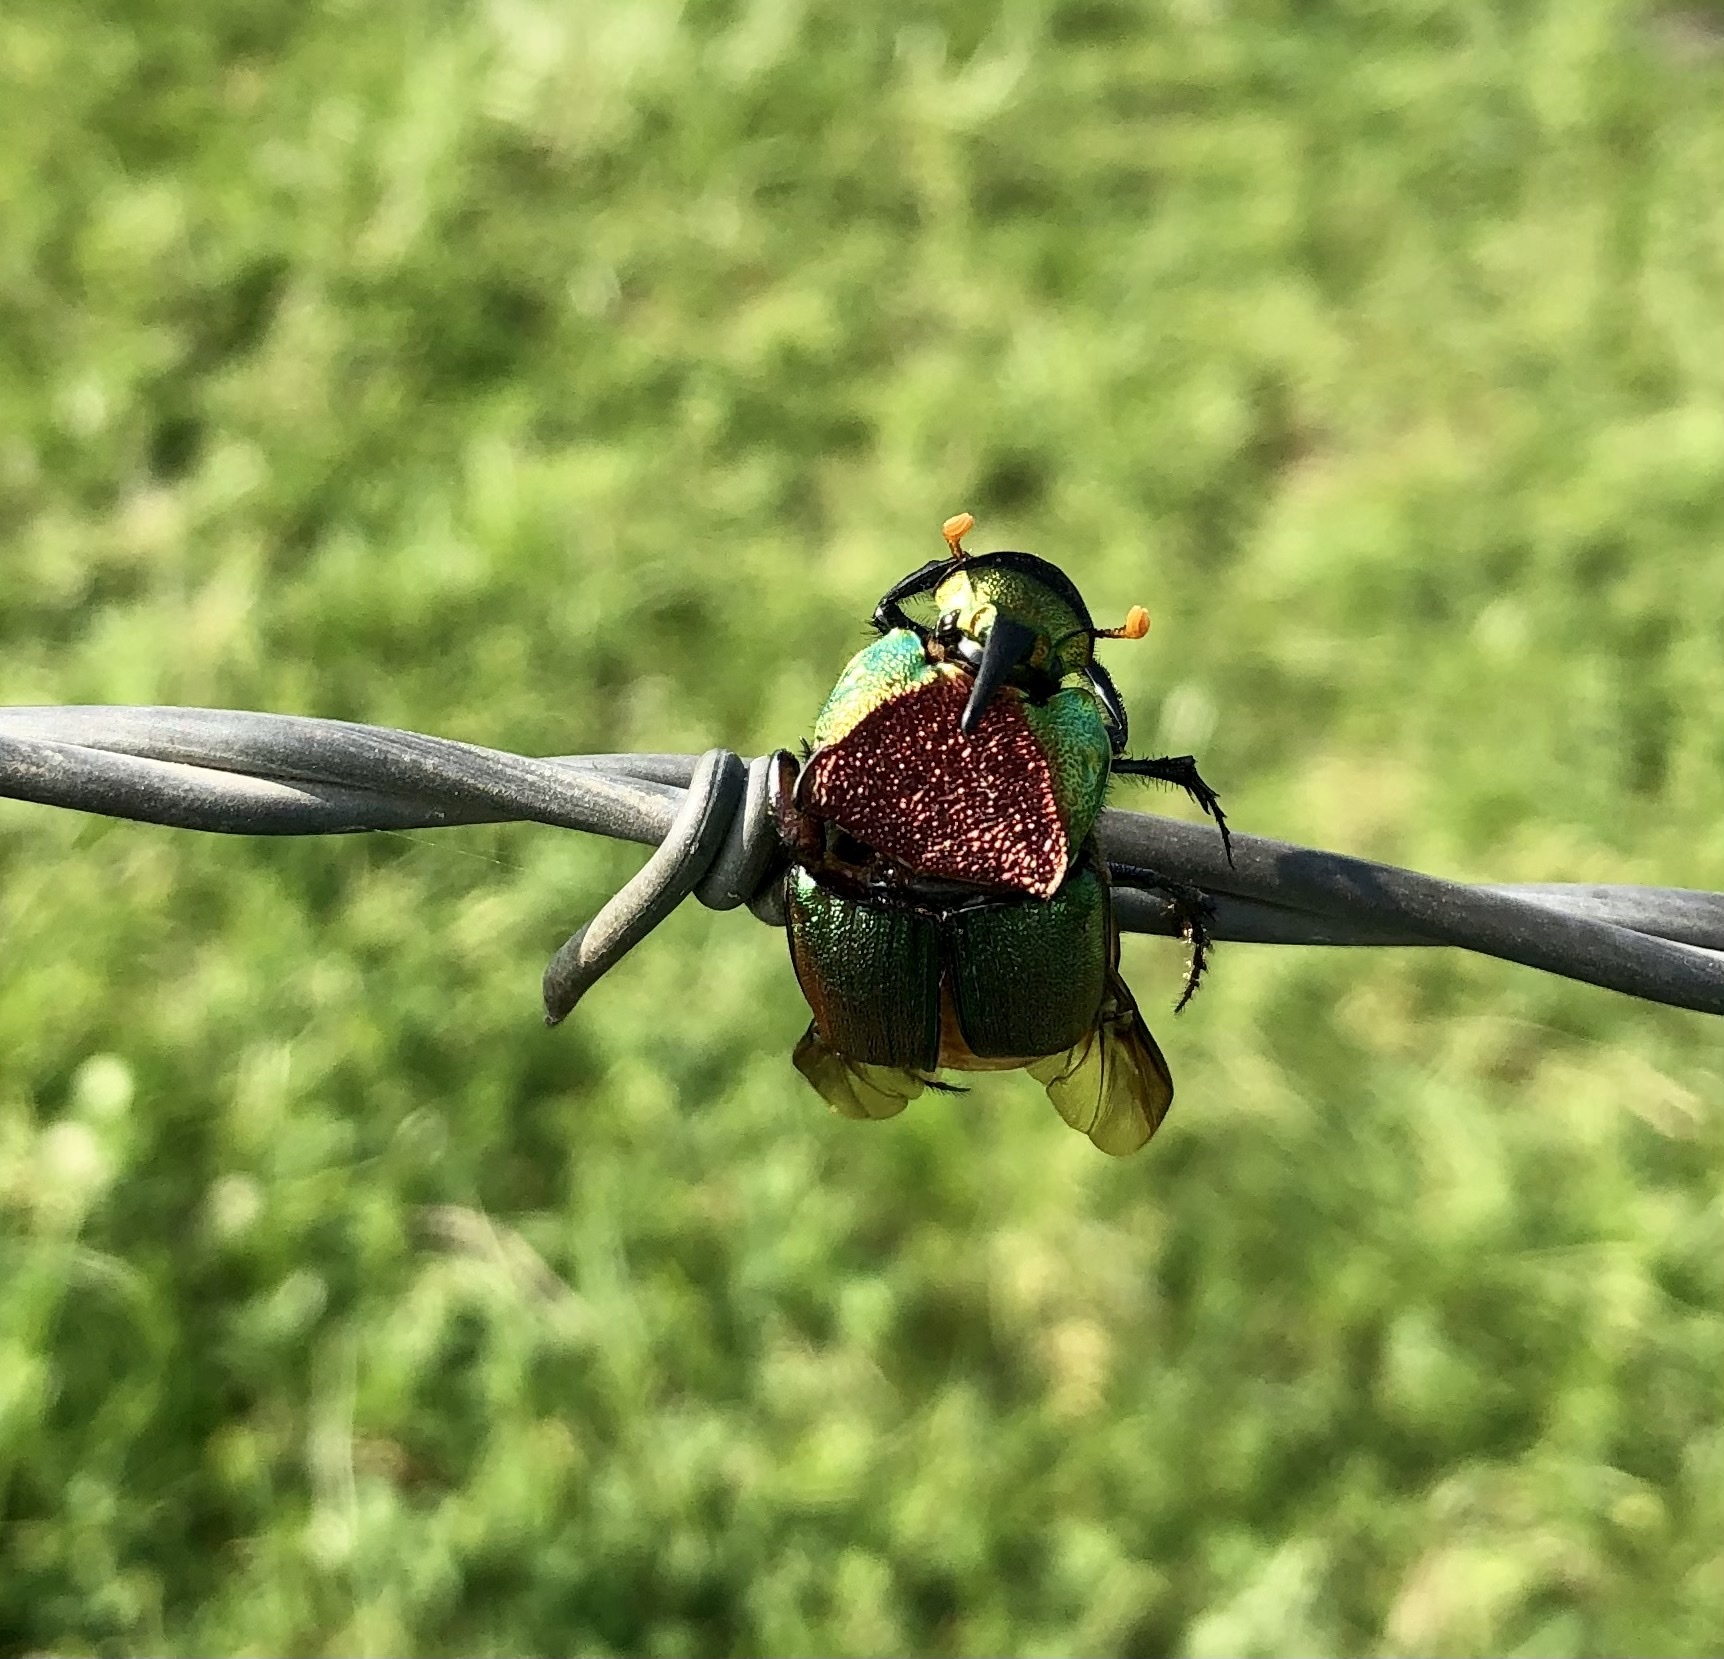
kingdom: Animalia
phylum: Arthropoda
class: Insecta
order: Coleoptera
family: Scarabaeidae
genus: Phanaeus
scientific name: Phanaeus vindex
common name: Rainbow scarab
